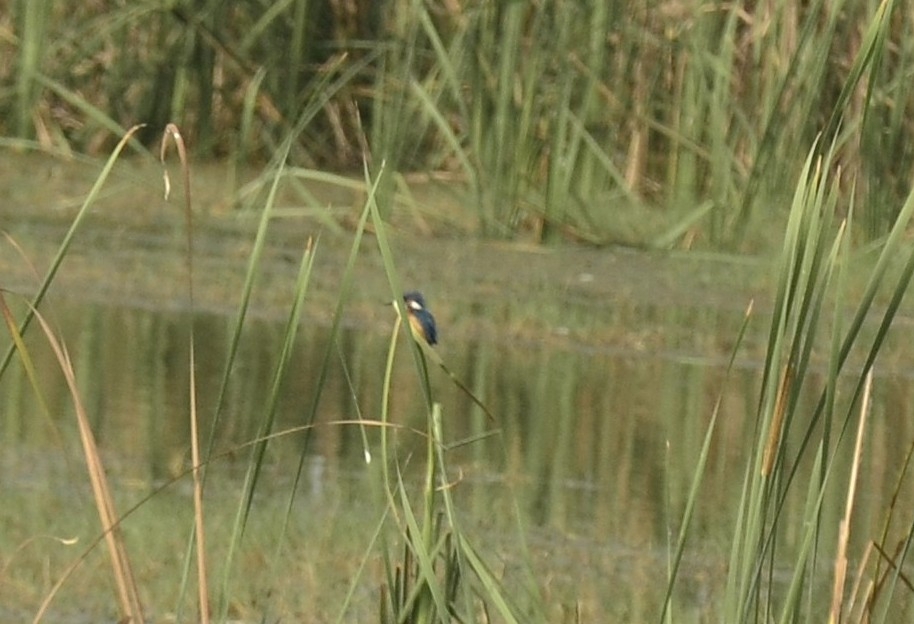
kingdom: Animalia
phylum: Chordata
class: Aves
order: Coraciiformes
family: Alcedinidae
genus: Alcedo
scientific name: Alcedo atthis
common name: Common kingfisher
